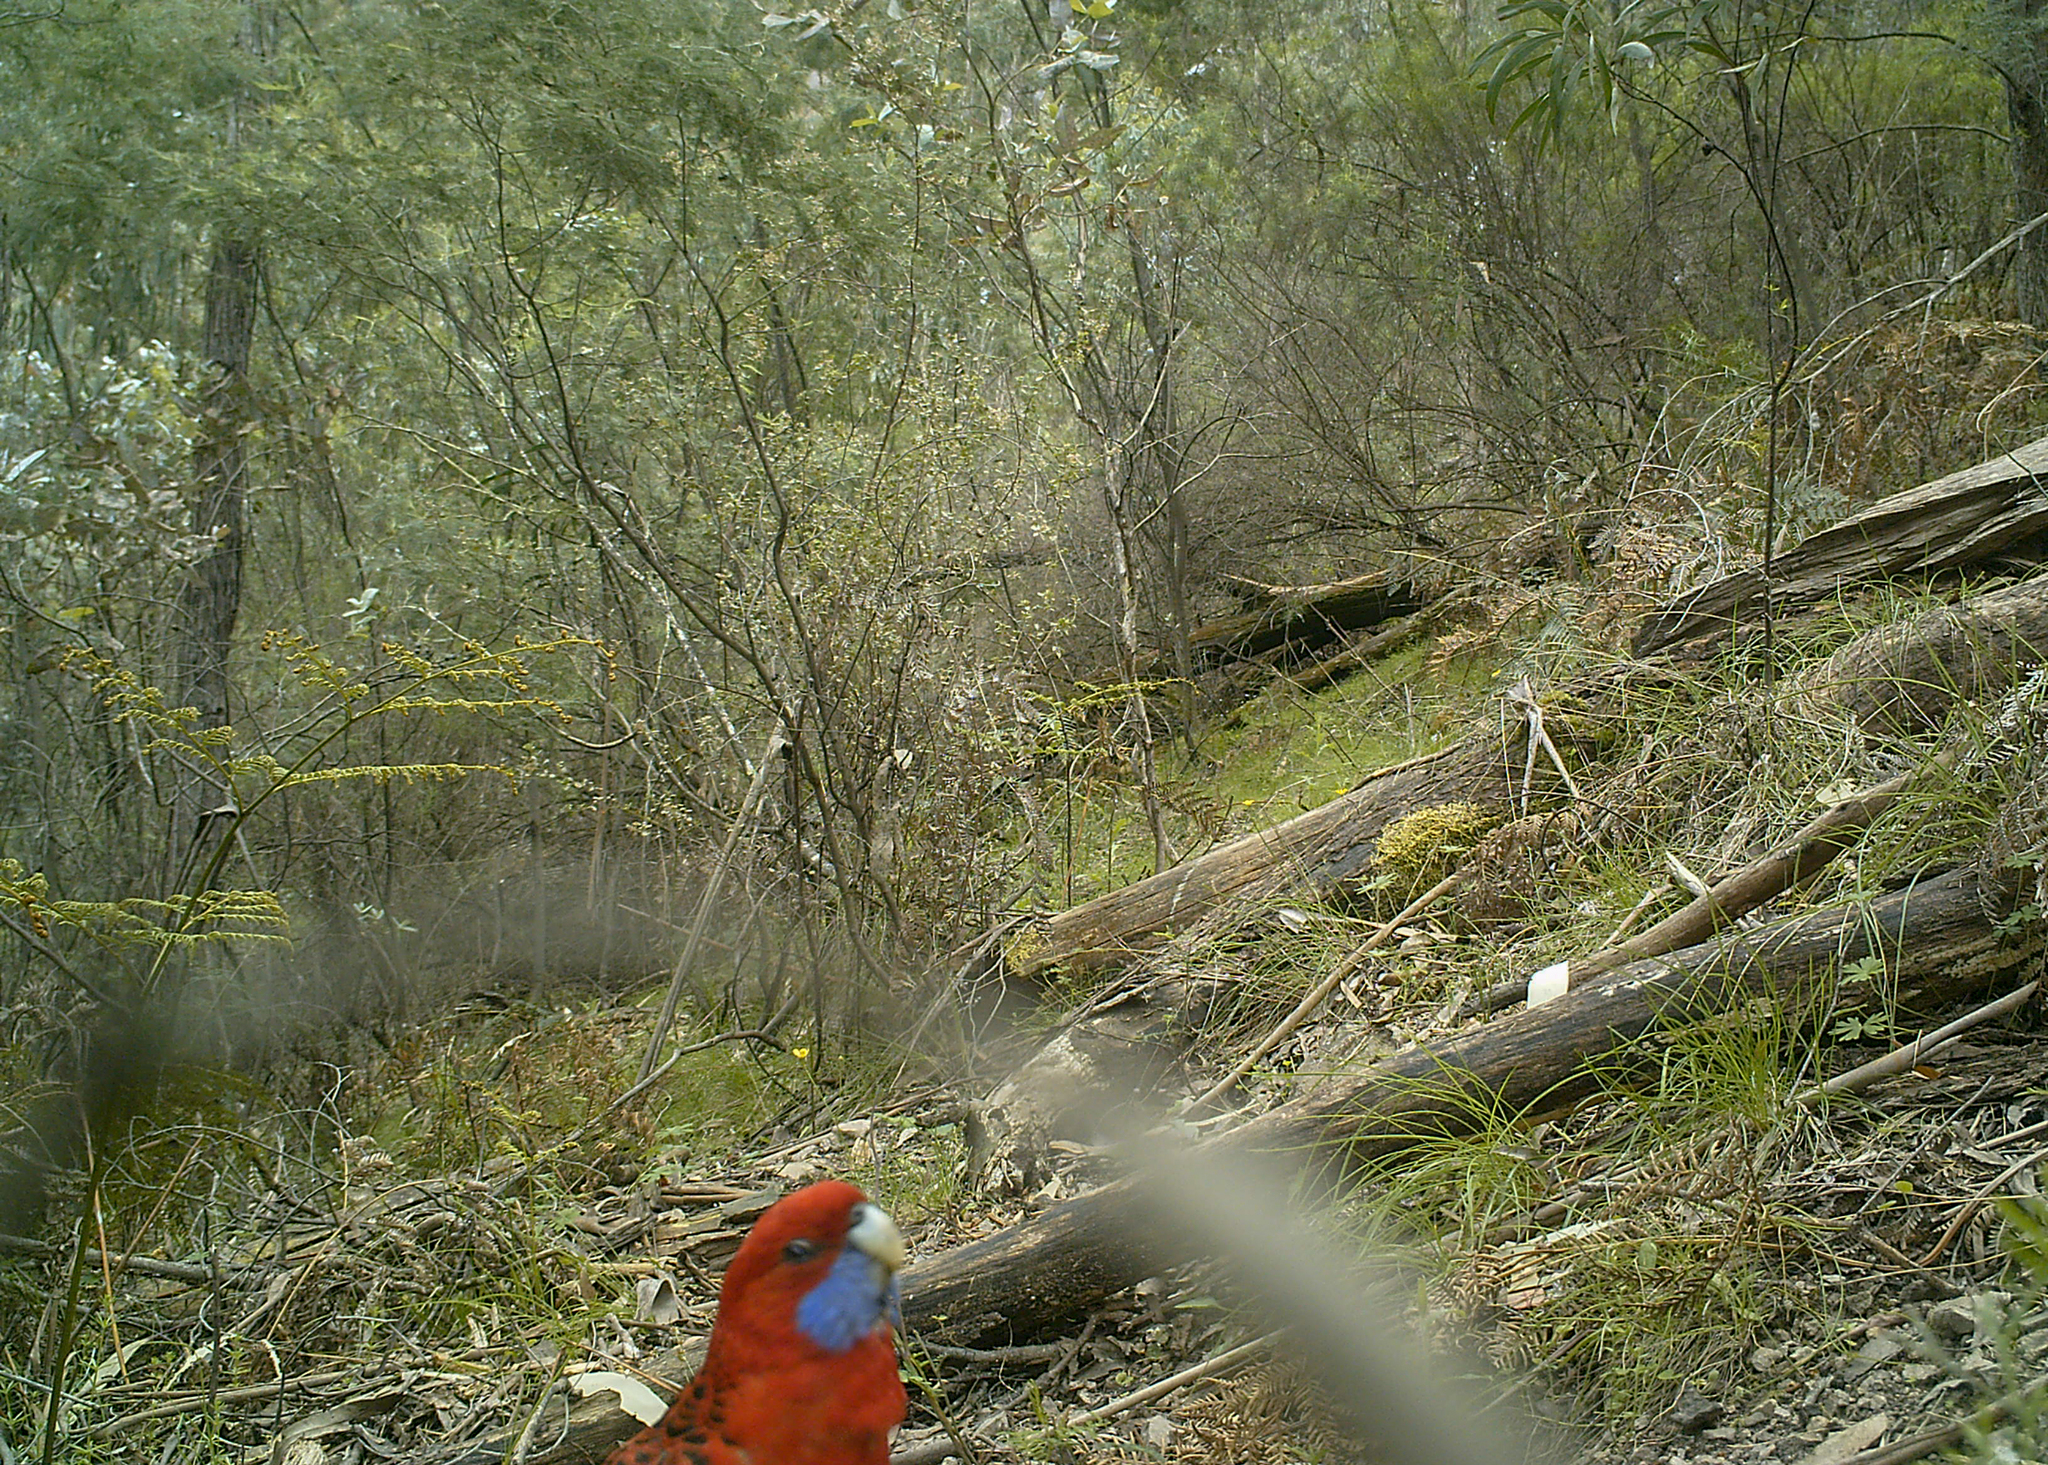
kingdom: Animalia
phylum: Chordata
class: Aves
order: Psittaciformes
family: Psittacidae
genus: Platycercus
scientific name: Platycercus elegans
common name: Crimson rosella
